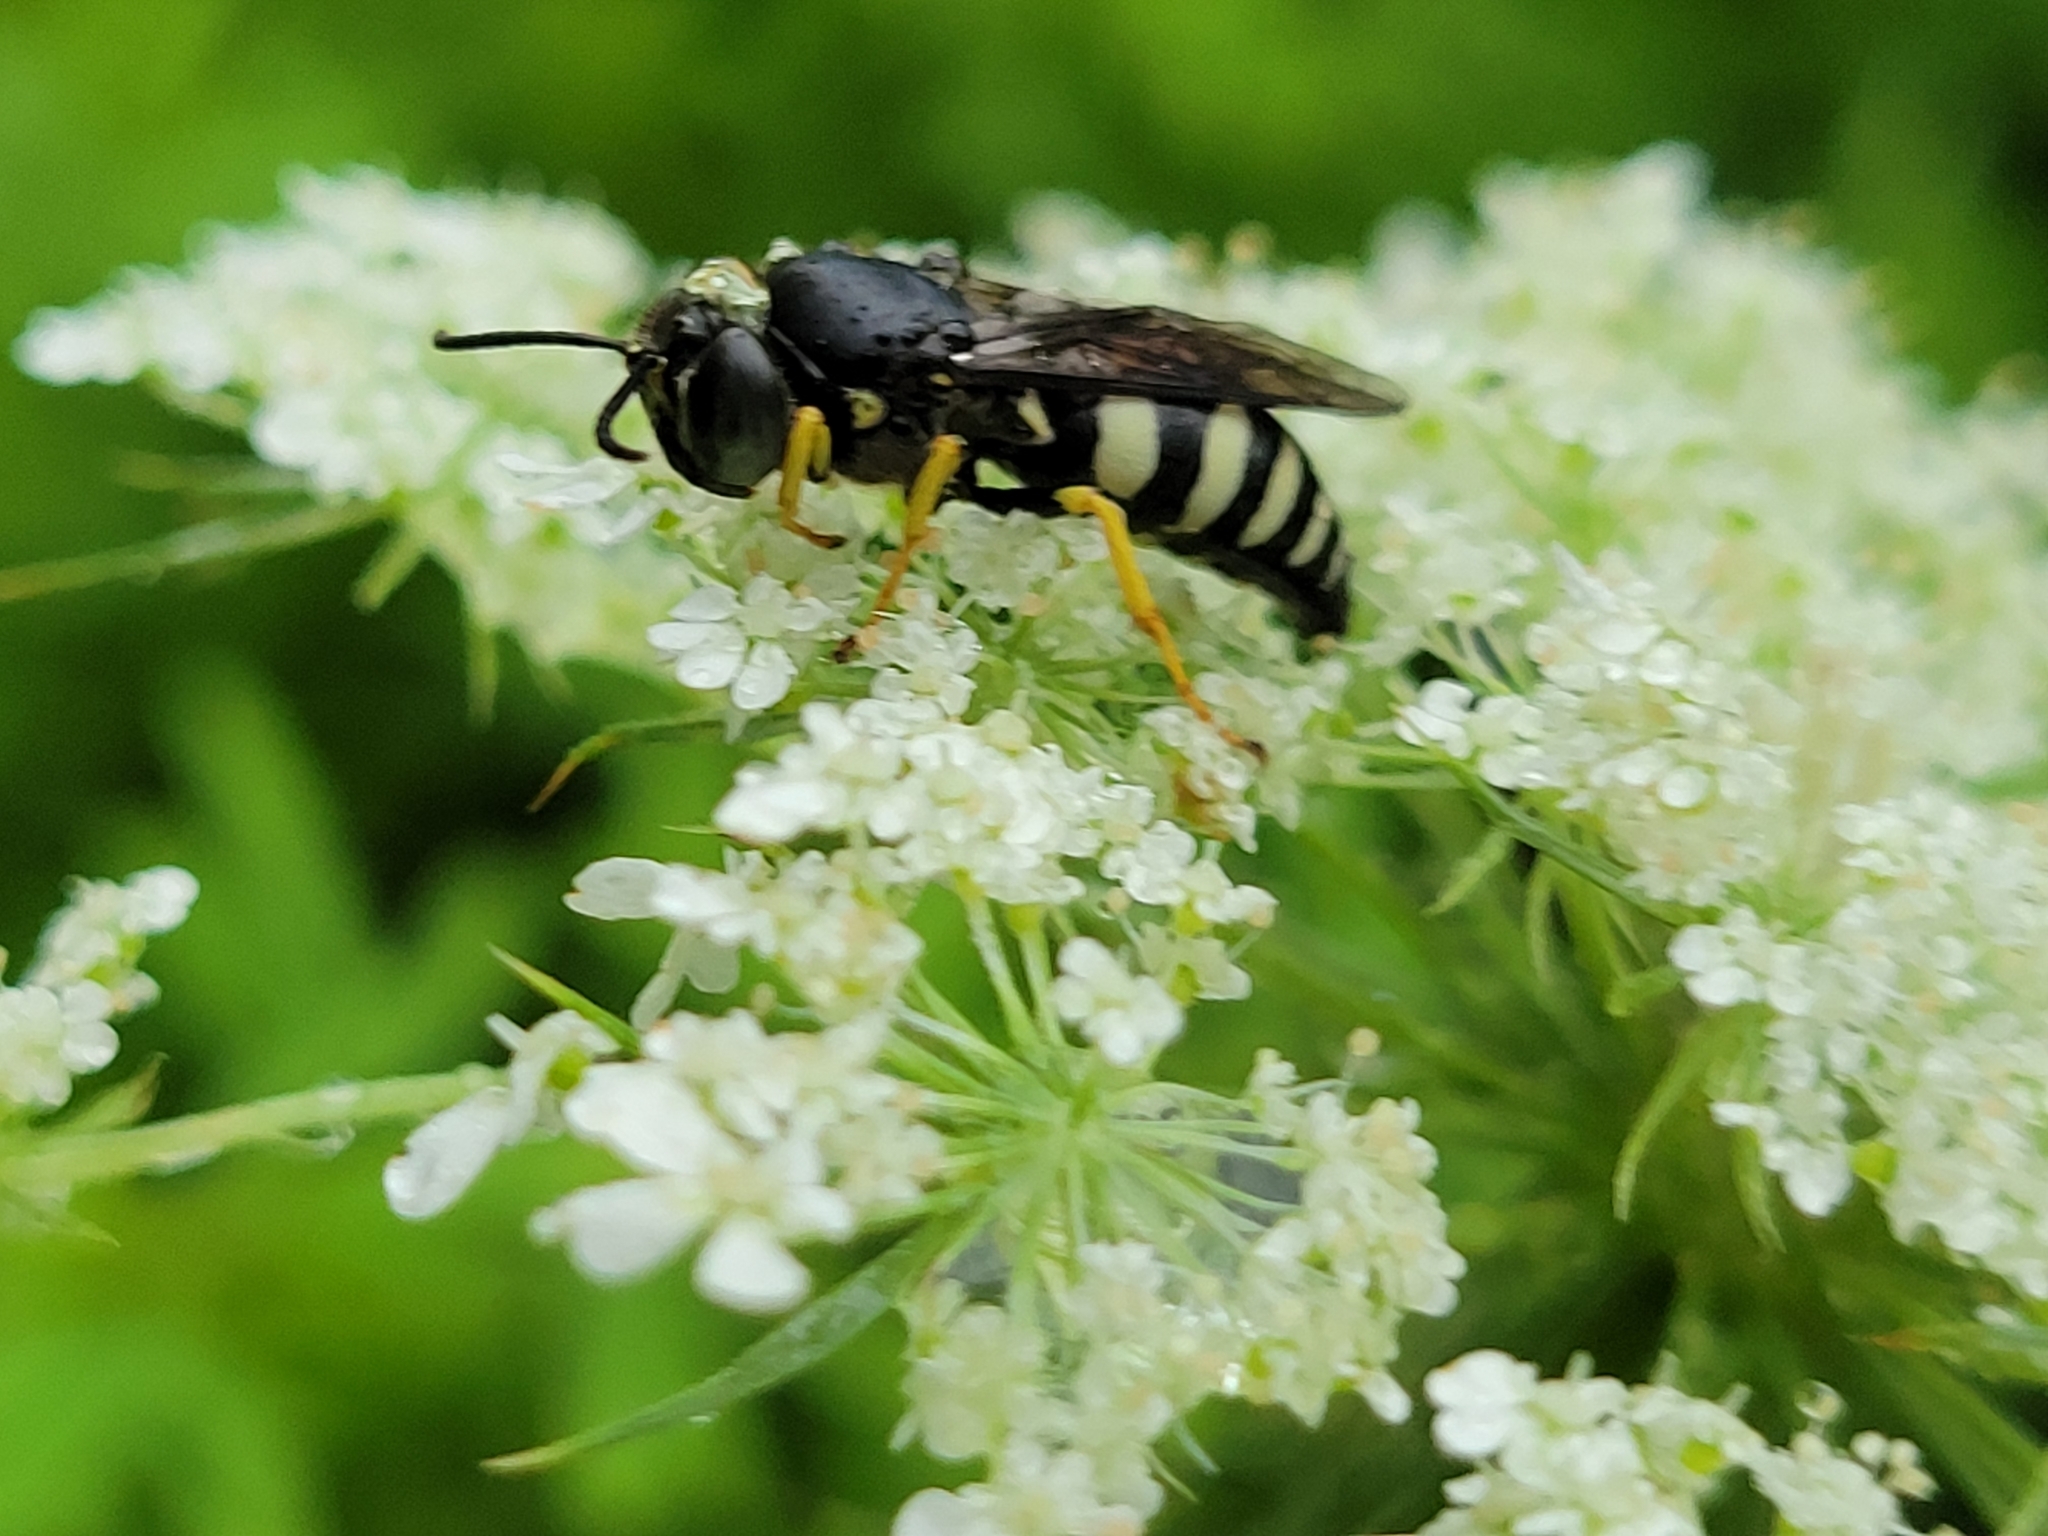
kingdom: Animalia
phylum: Arthropoda
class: Insecta
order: Hymenoptera
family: Crabronidae
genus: Bicyrtes
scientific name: Bicyrtes quadrifasciatus
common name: Four-banded stink bug hunter wasp
